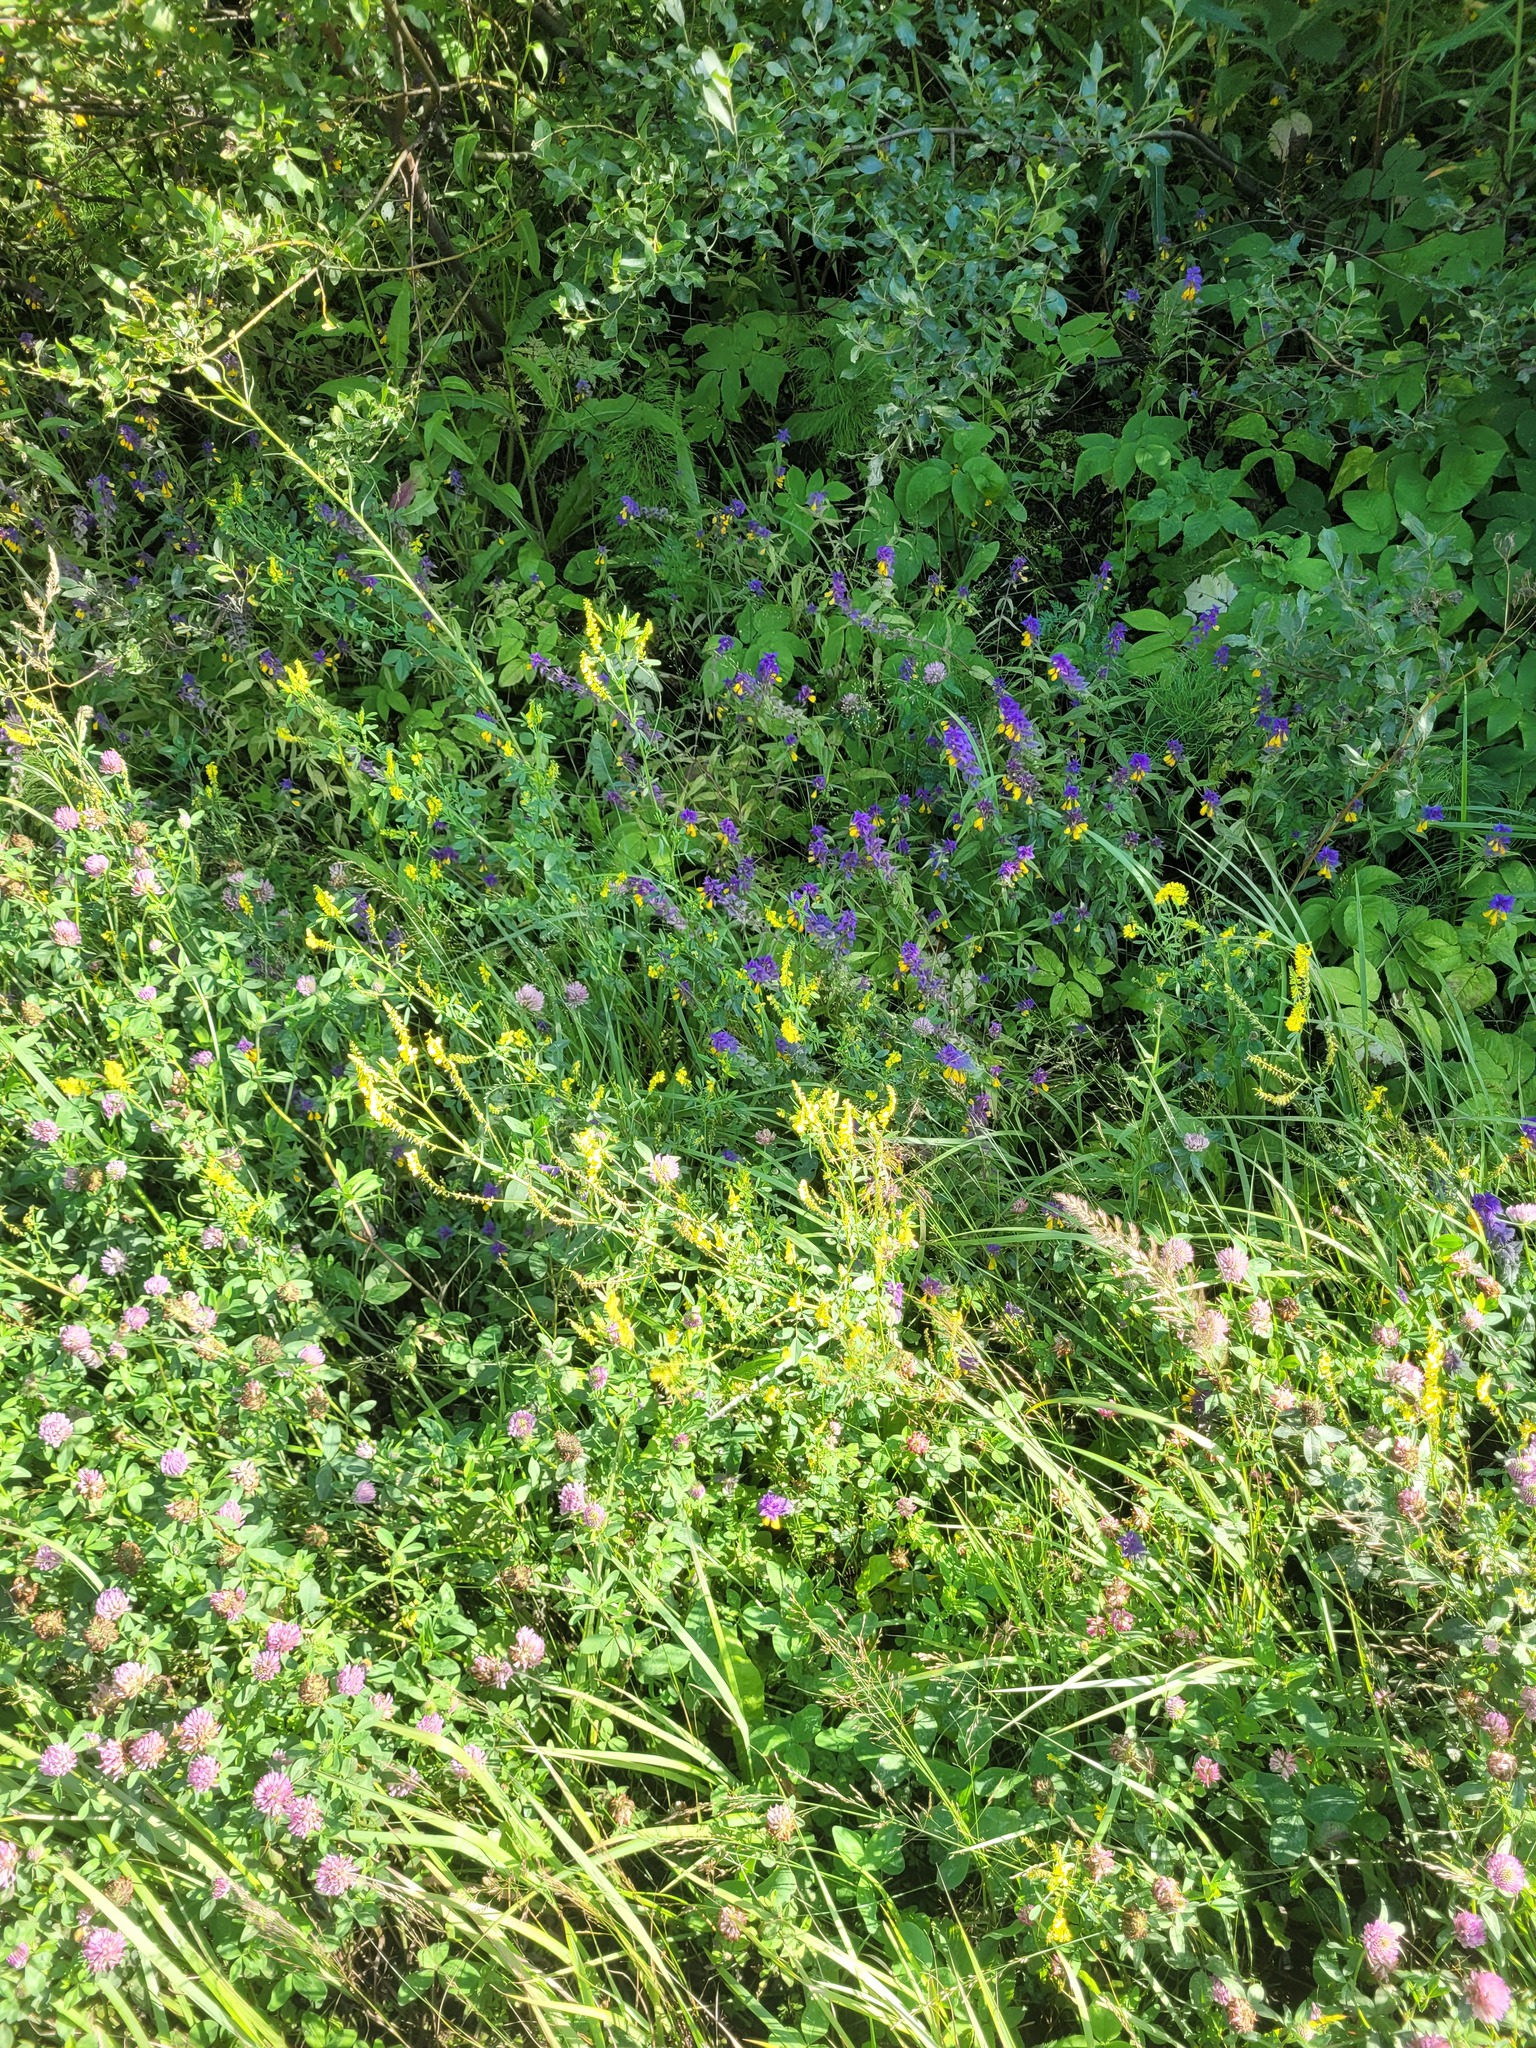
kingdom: Plantae
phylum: Tracheophyta
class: Magnoliopsida
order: Fabales
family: Fabaceae
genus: Melilotus
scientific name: Melilotus officinalis
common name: Sweetclover
